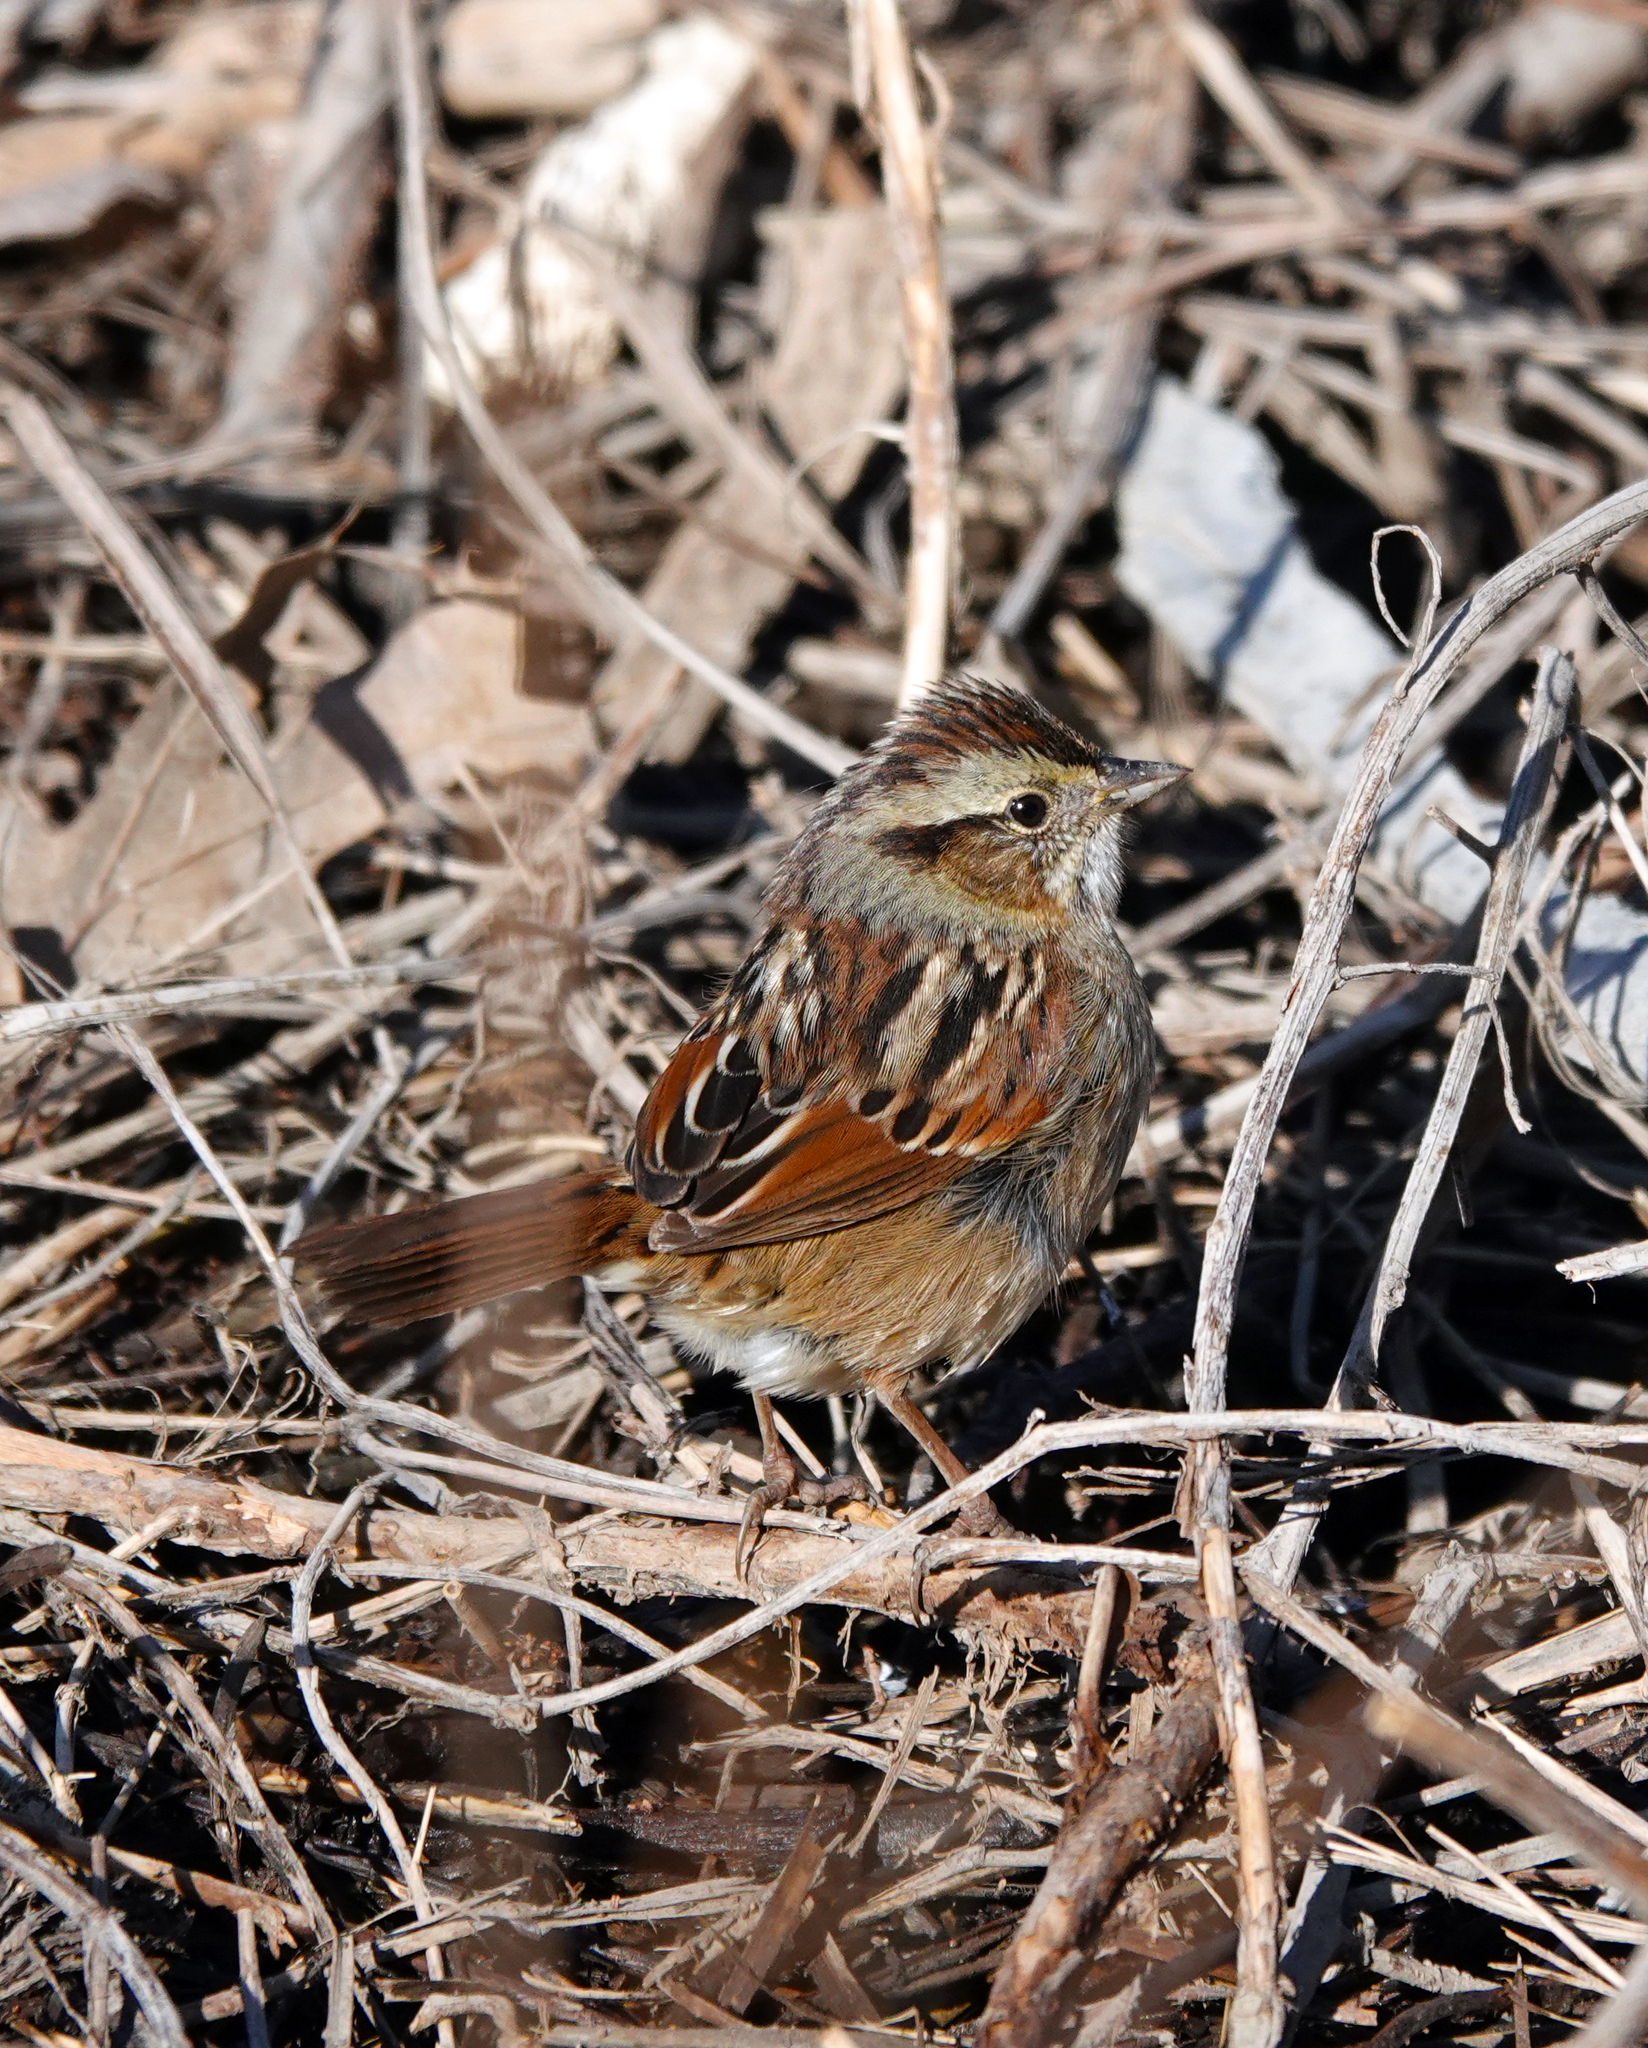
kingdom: Animalia
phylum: Chordata
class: Aves
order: Passeriformes
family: Passerellidae
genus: Melospiza
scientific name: Melospiza georgiana
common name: Swamp sparrow
